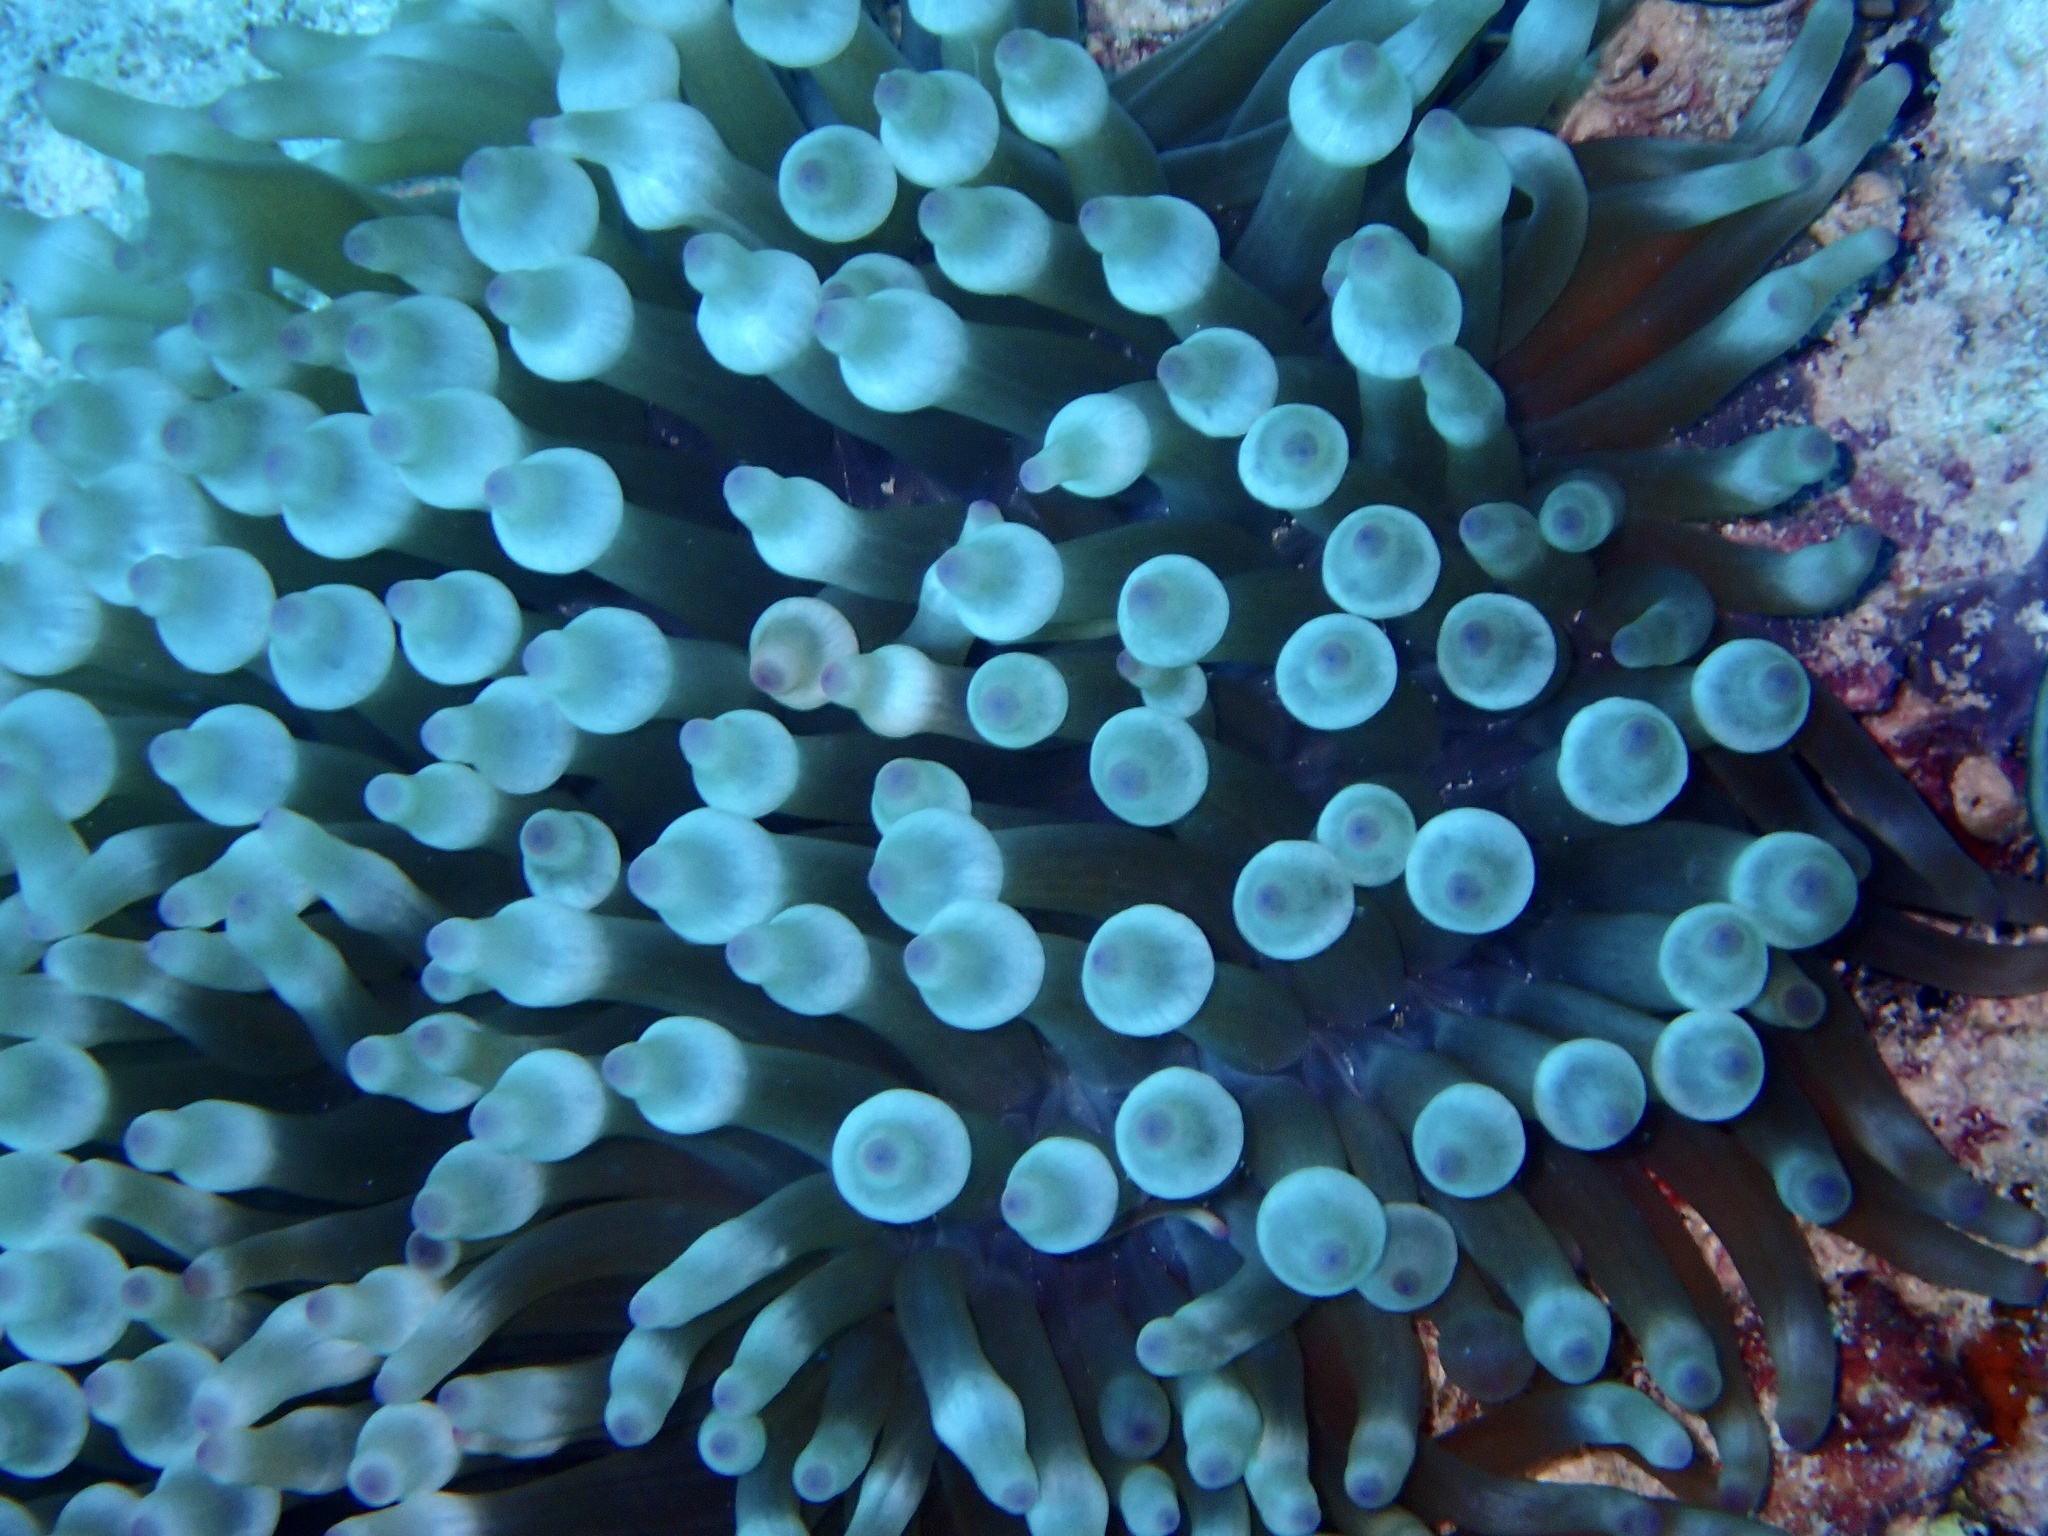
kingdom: Animalia
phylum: Cnidaria
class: Anthozoa
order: Actiniaria
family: Actiniidae
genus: Entacmaea
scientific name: Entacmaea quadricolor
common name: Bulb tentacle sea anemone
